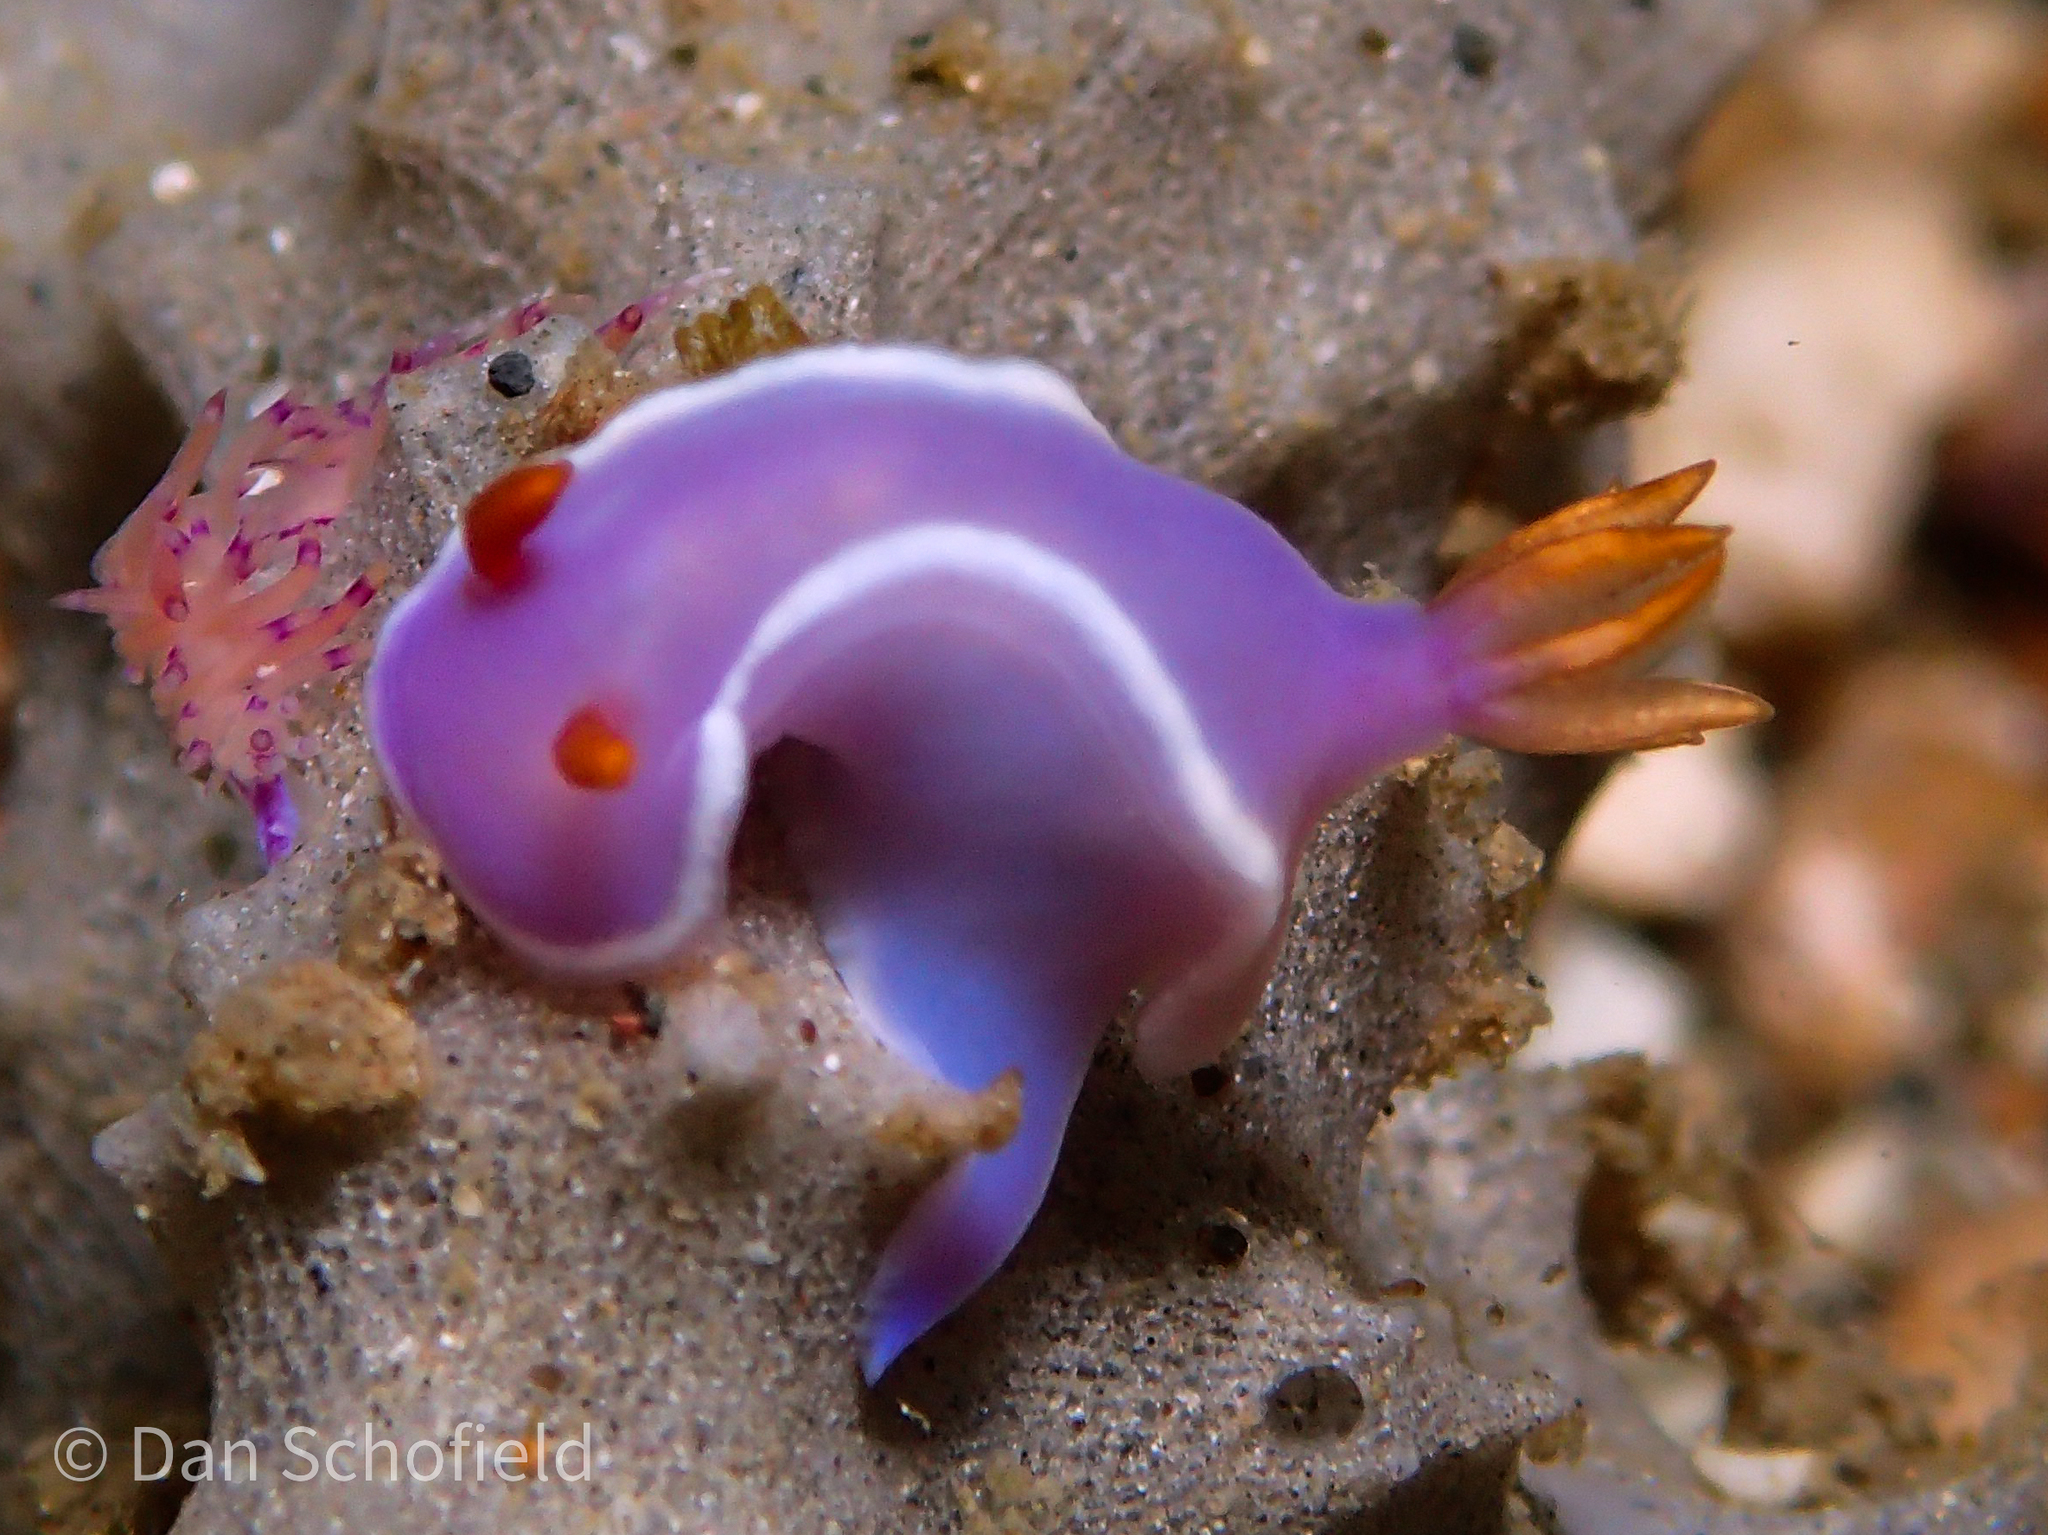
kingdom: Animalia
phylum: Mollusca
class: Gastropoda
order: Nudibranchia
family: Chromodorididae
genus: Hypselodoris
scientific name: Hypselodoris variobranchia
